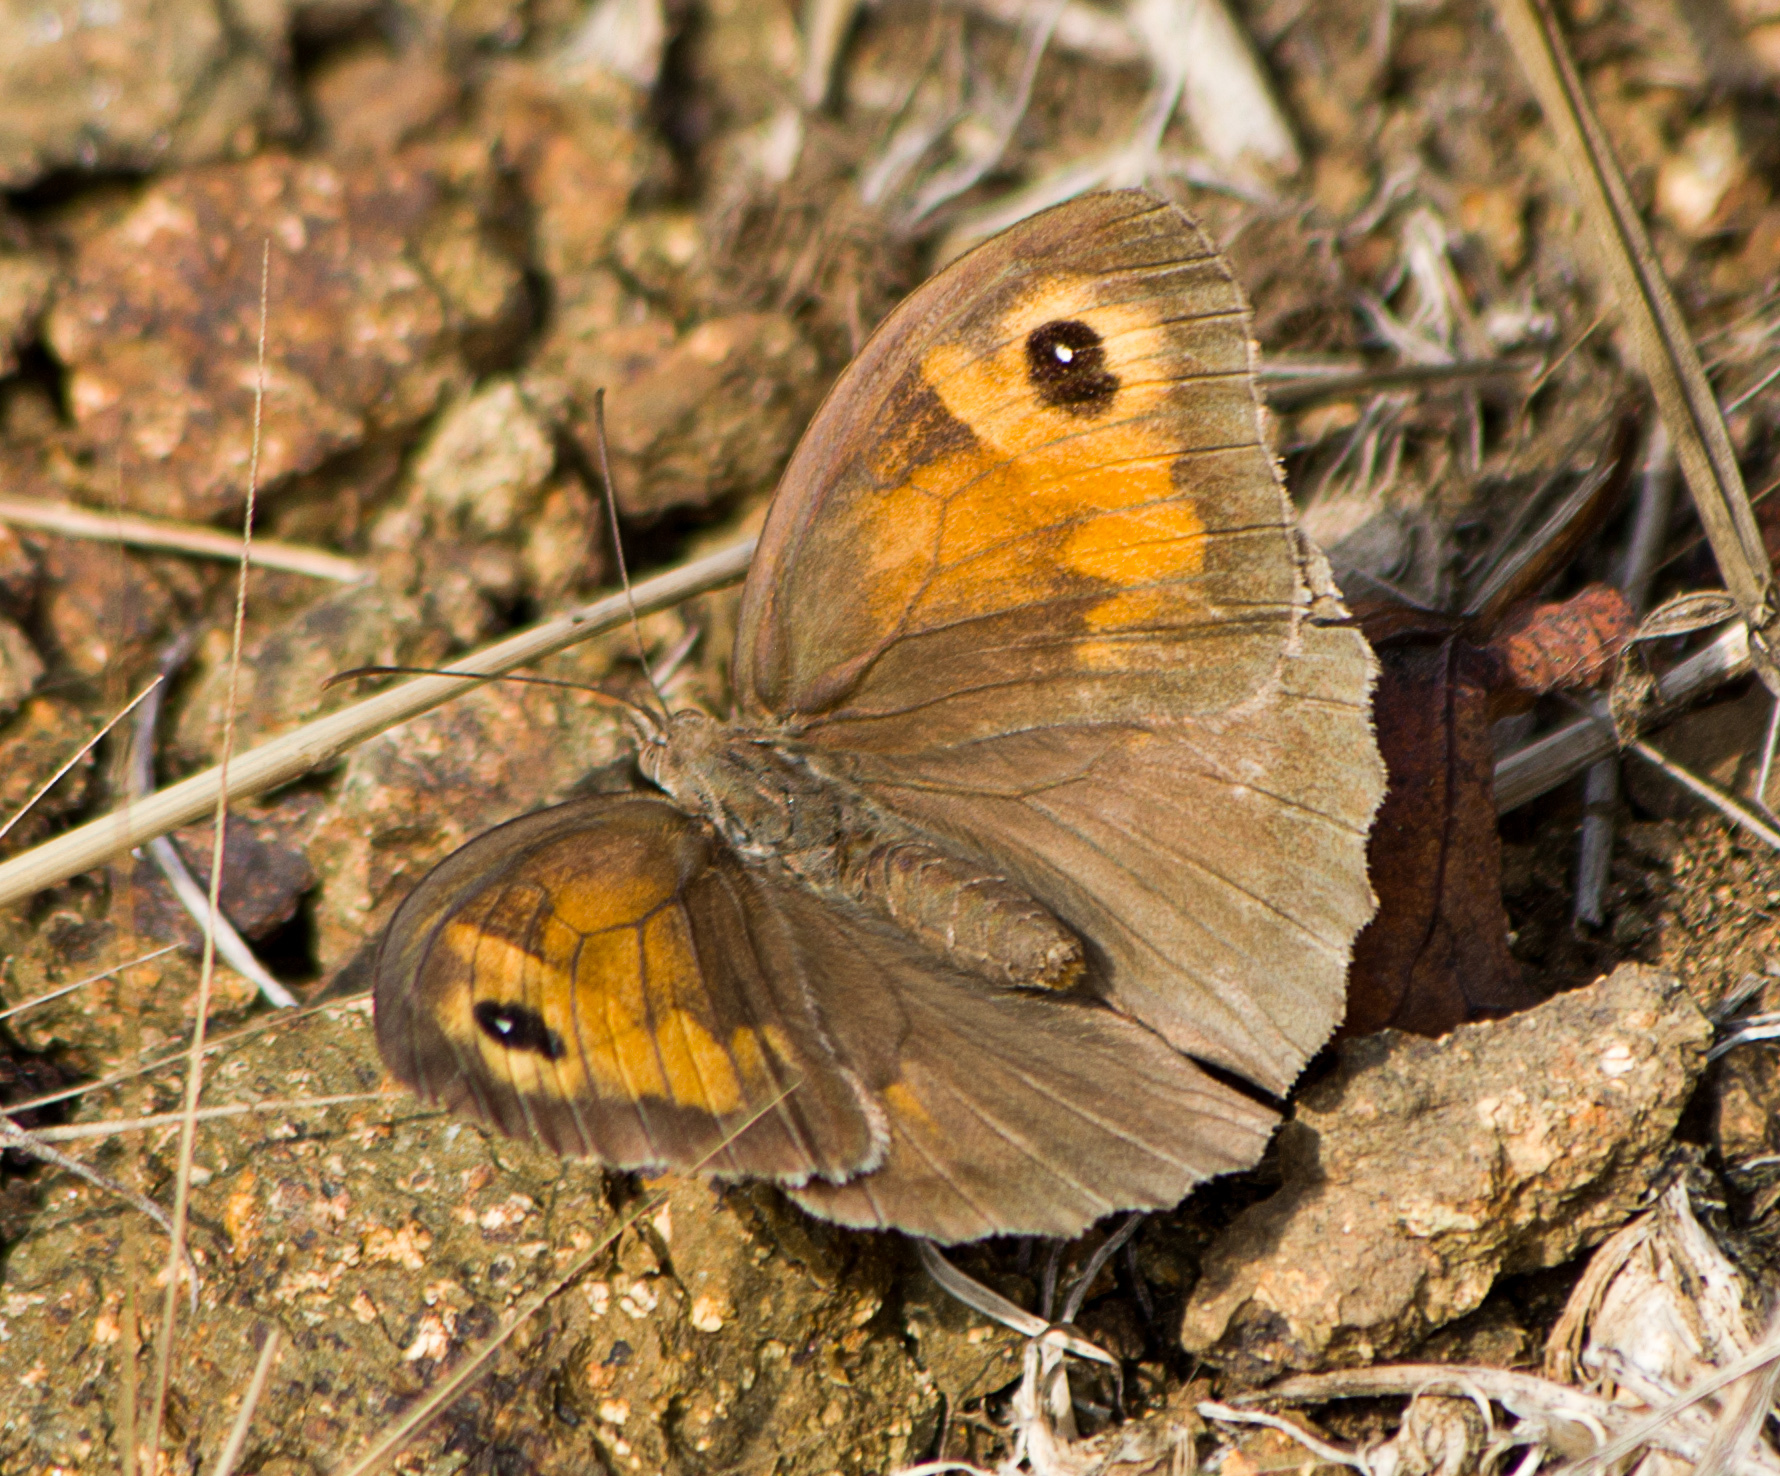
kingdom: Animalia
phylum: Arthropoda
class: Insecta
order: Lepidoptera
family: Nymphalidae
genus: Maniola
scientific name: Maniola jurtina
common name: Meadow brown
